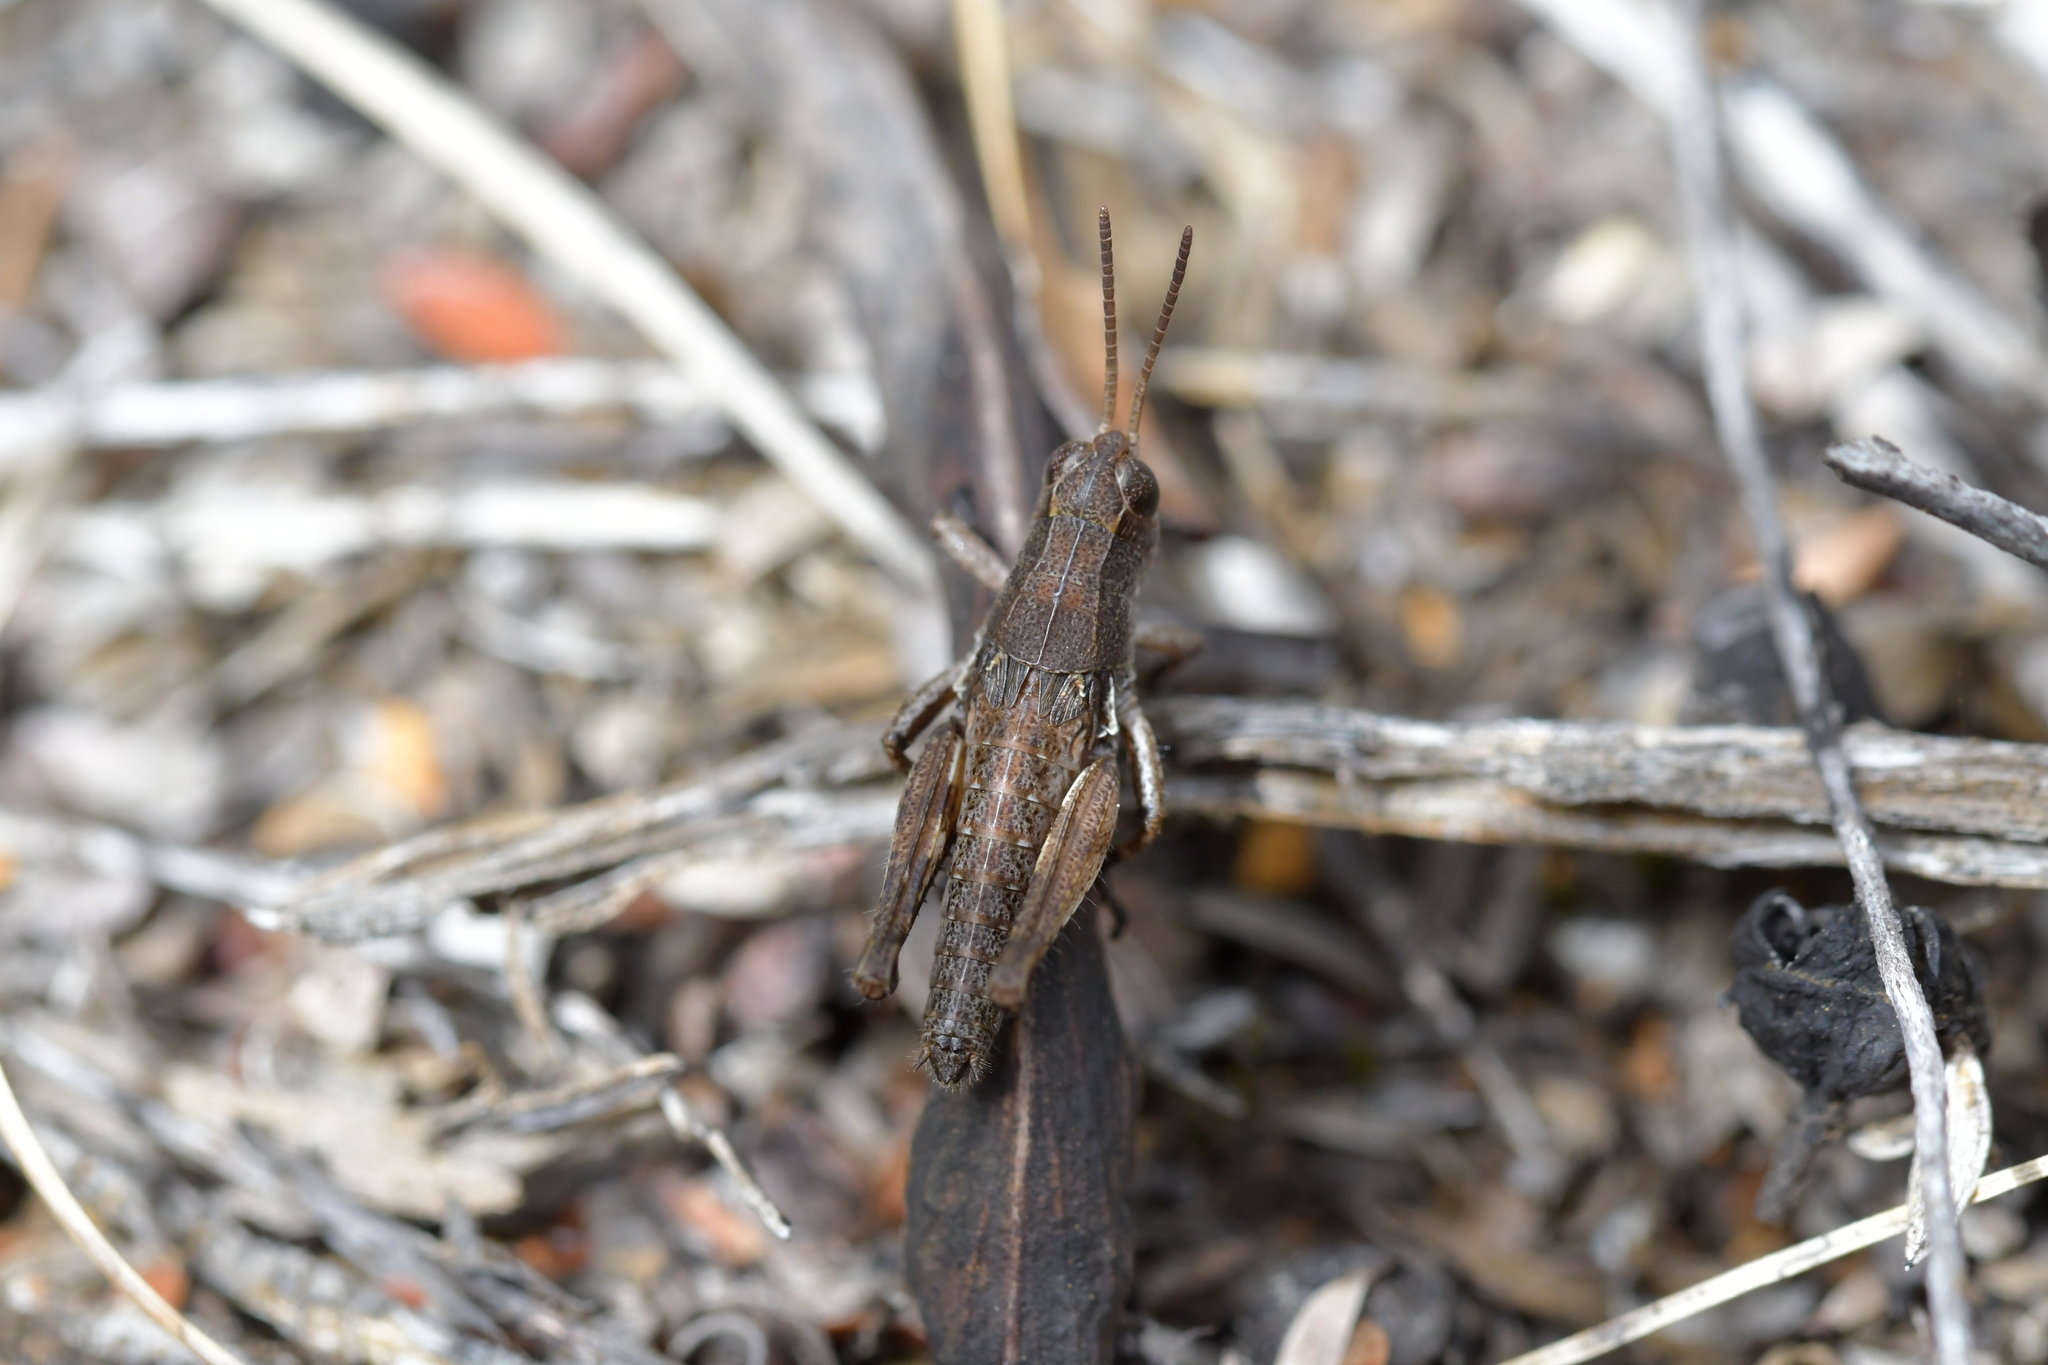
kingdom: Animalia
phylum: Arthropoda
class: Insecta
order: Orthoptera
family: Acrididae
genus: Phaulacridium
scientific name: Phaulacridium marginale
